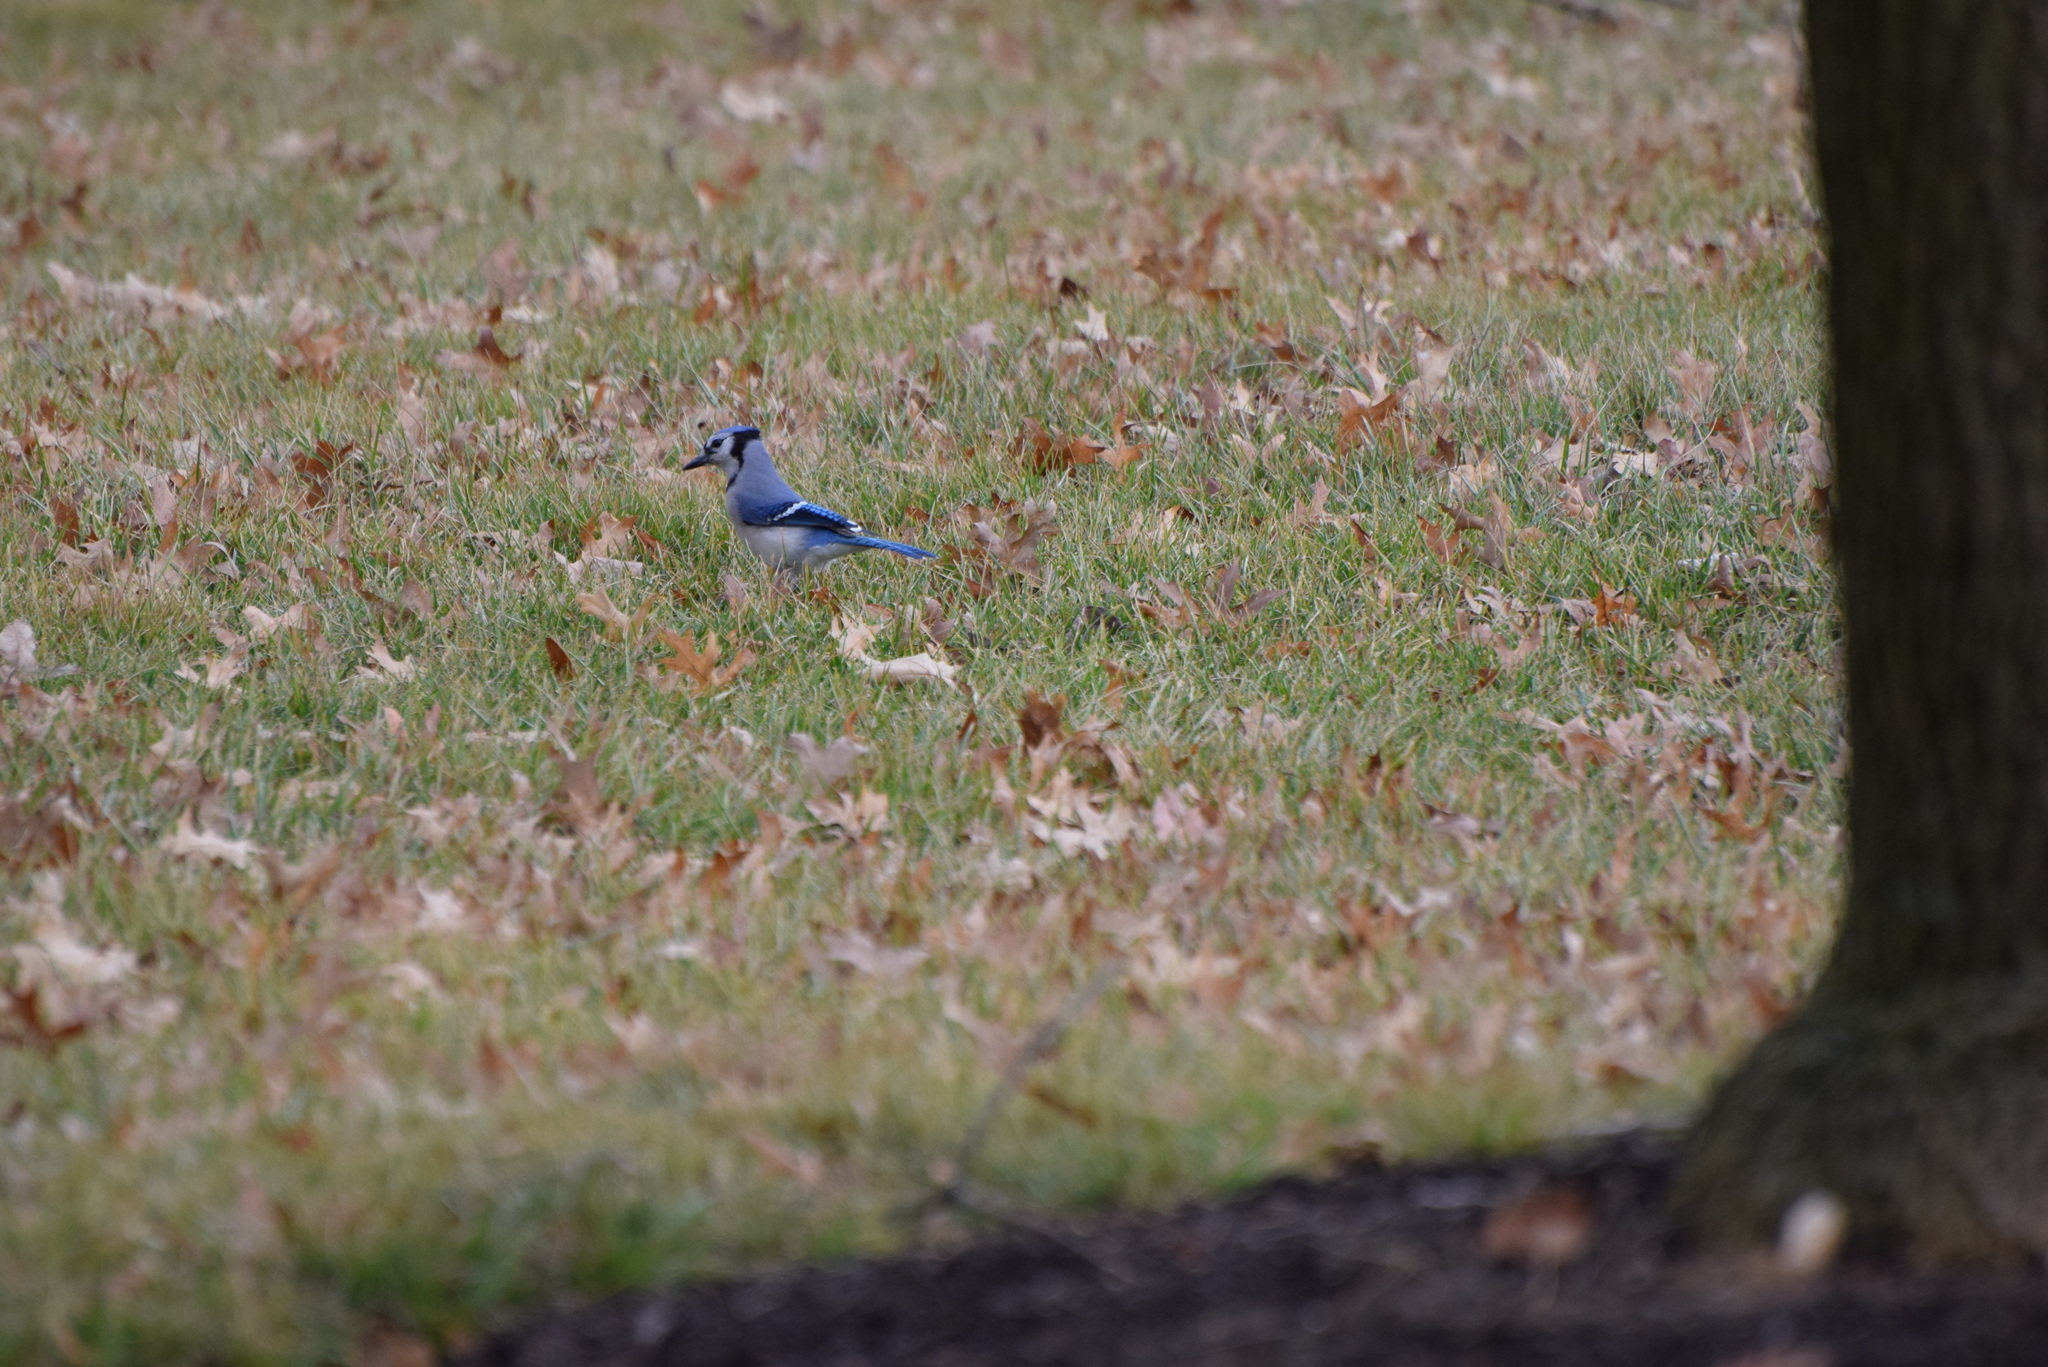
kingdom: Animalia
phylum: Chordata
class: Aves
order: Passeriformes
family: Corvidae
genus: Cyanocitta
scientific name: Cyanocitta cristata
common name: Blue jay
